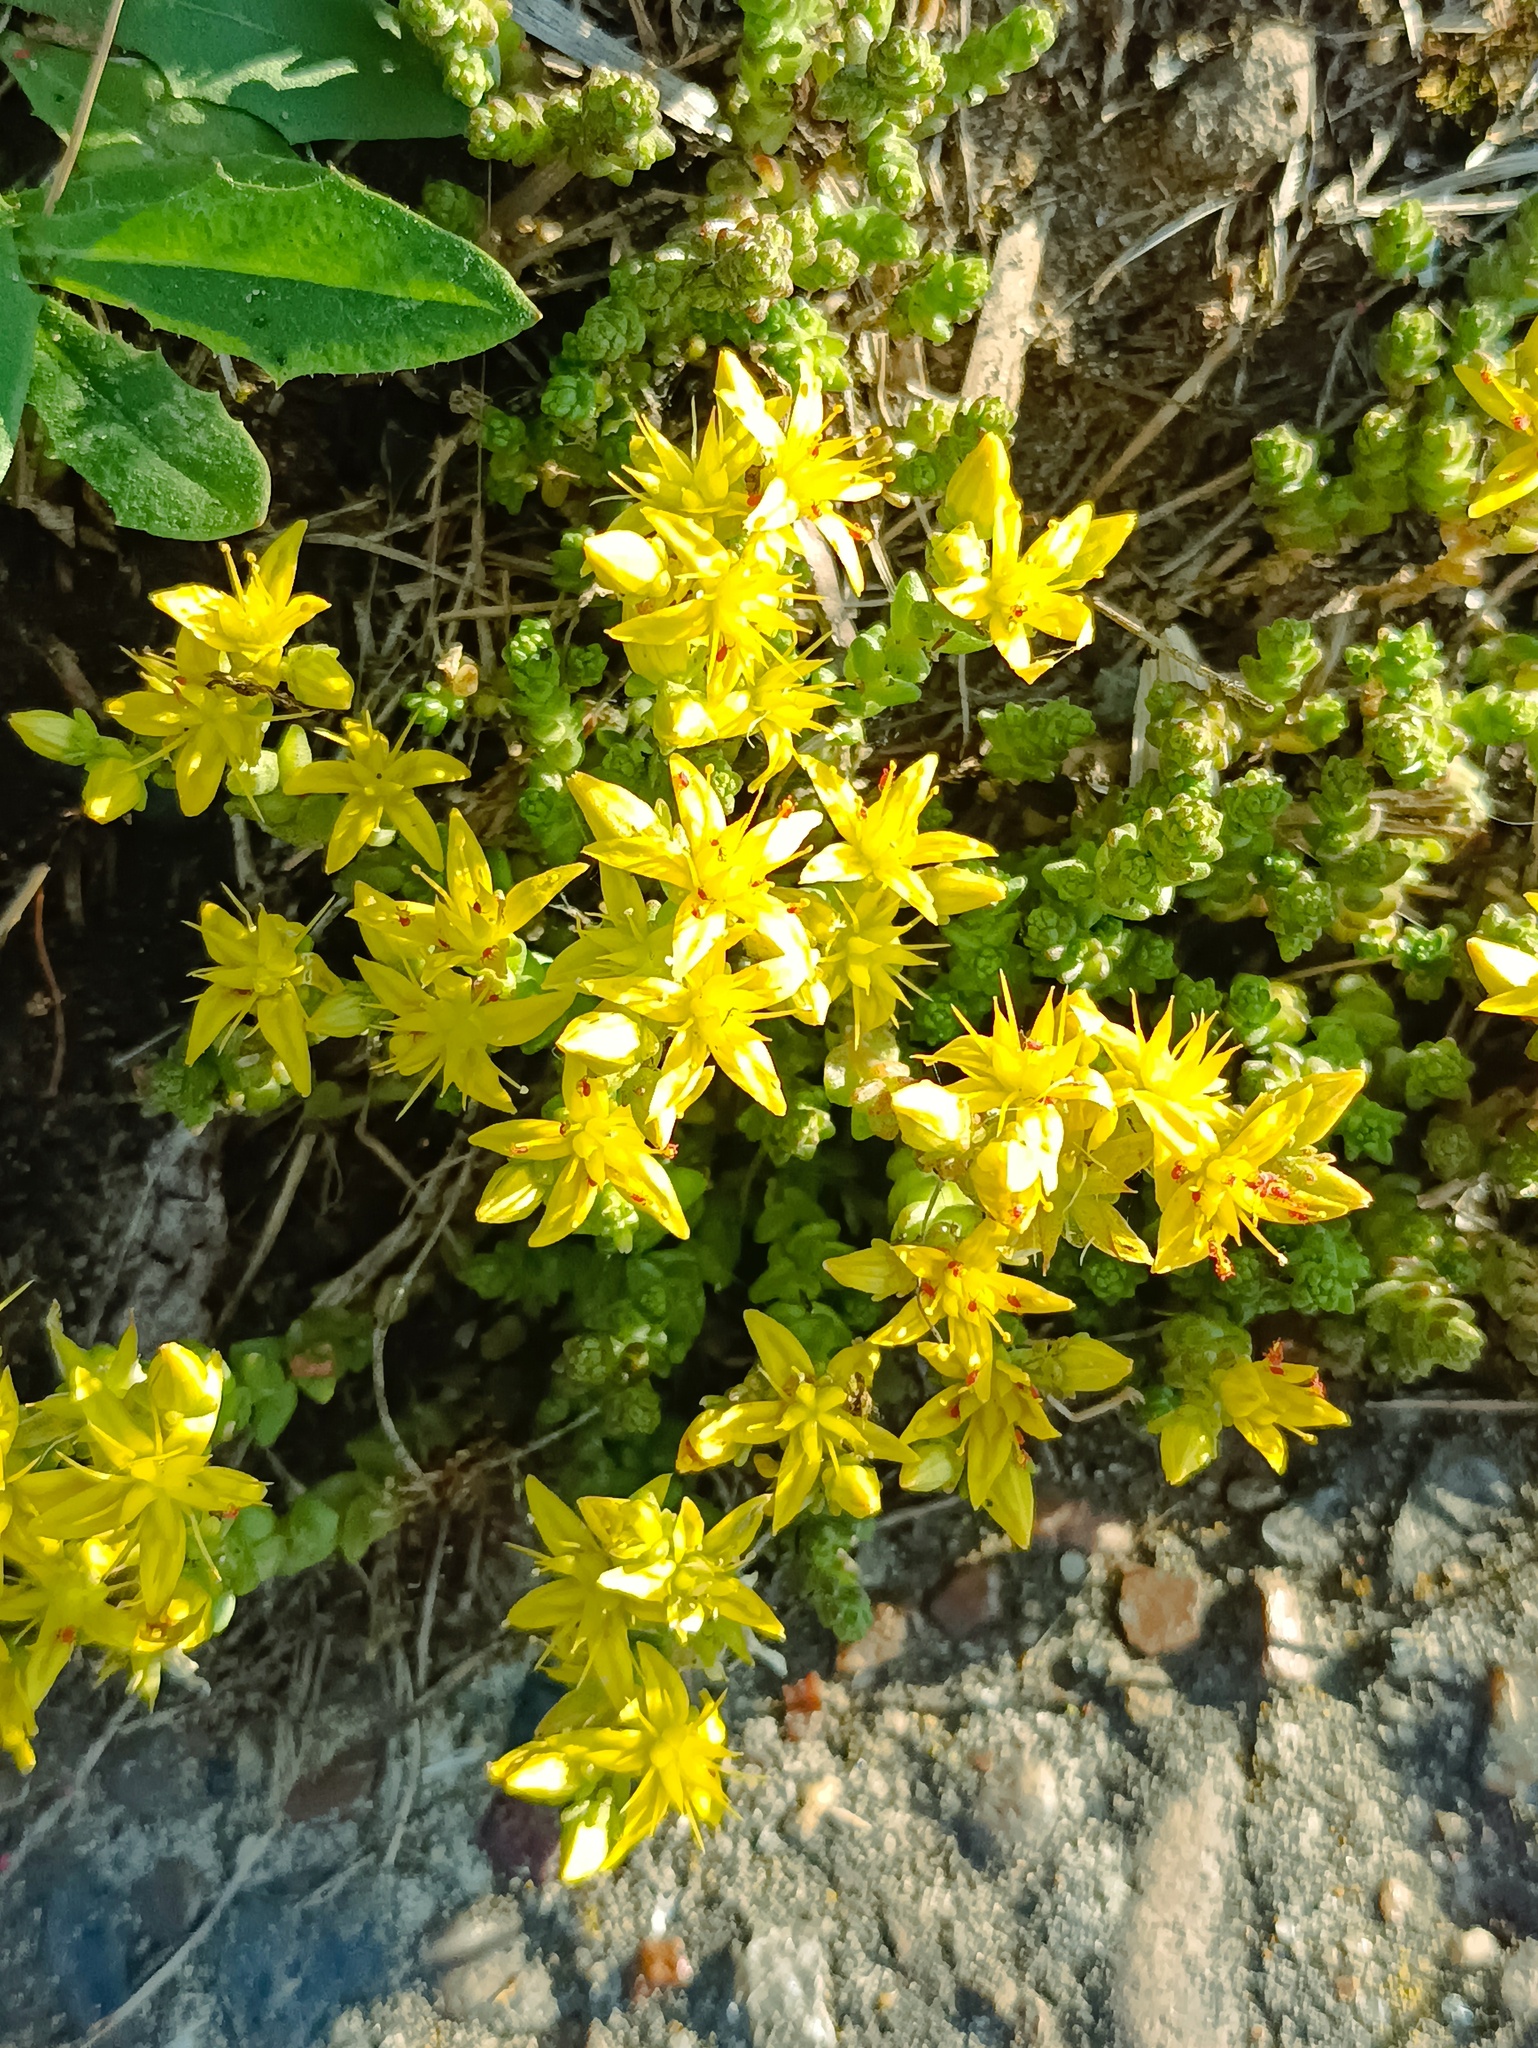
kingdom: Plantae
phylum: Tracheophyta
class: Magnoliopsida
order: Saxifragales
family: Crassulaceae
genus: Sedum
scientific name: Sedum acre
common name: Biting stonecrop
